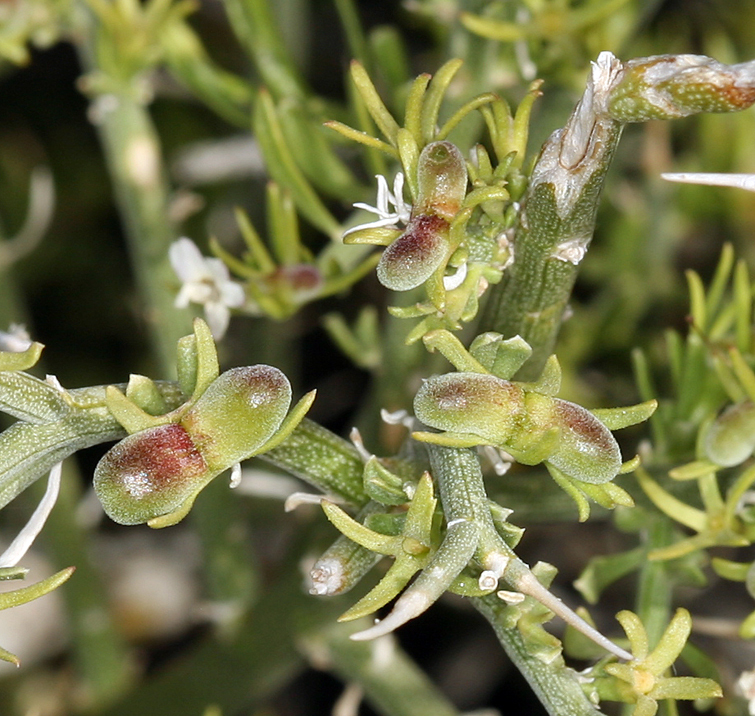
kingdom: Plantae
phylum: Tracheophyta
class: Magnoliopsida
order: Lamiales
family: Oleaceae
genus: Menodora
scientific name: Menodora spinescens
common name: Spiny menodora
